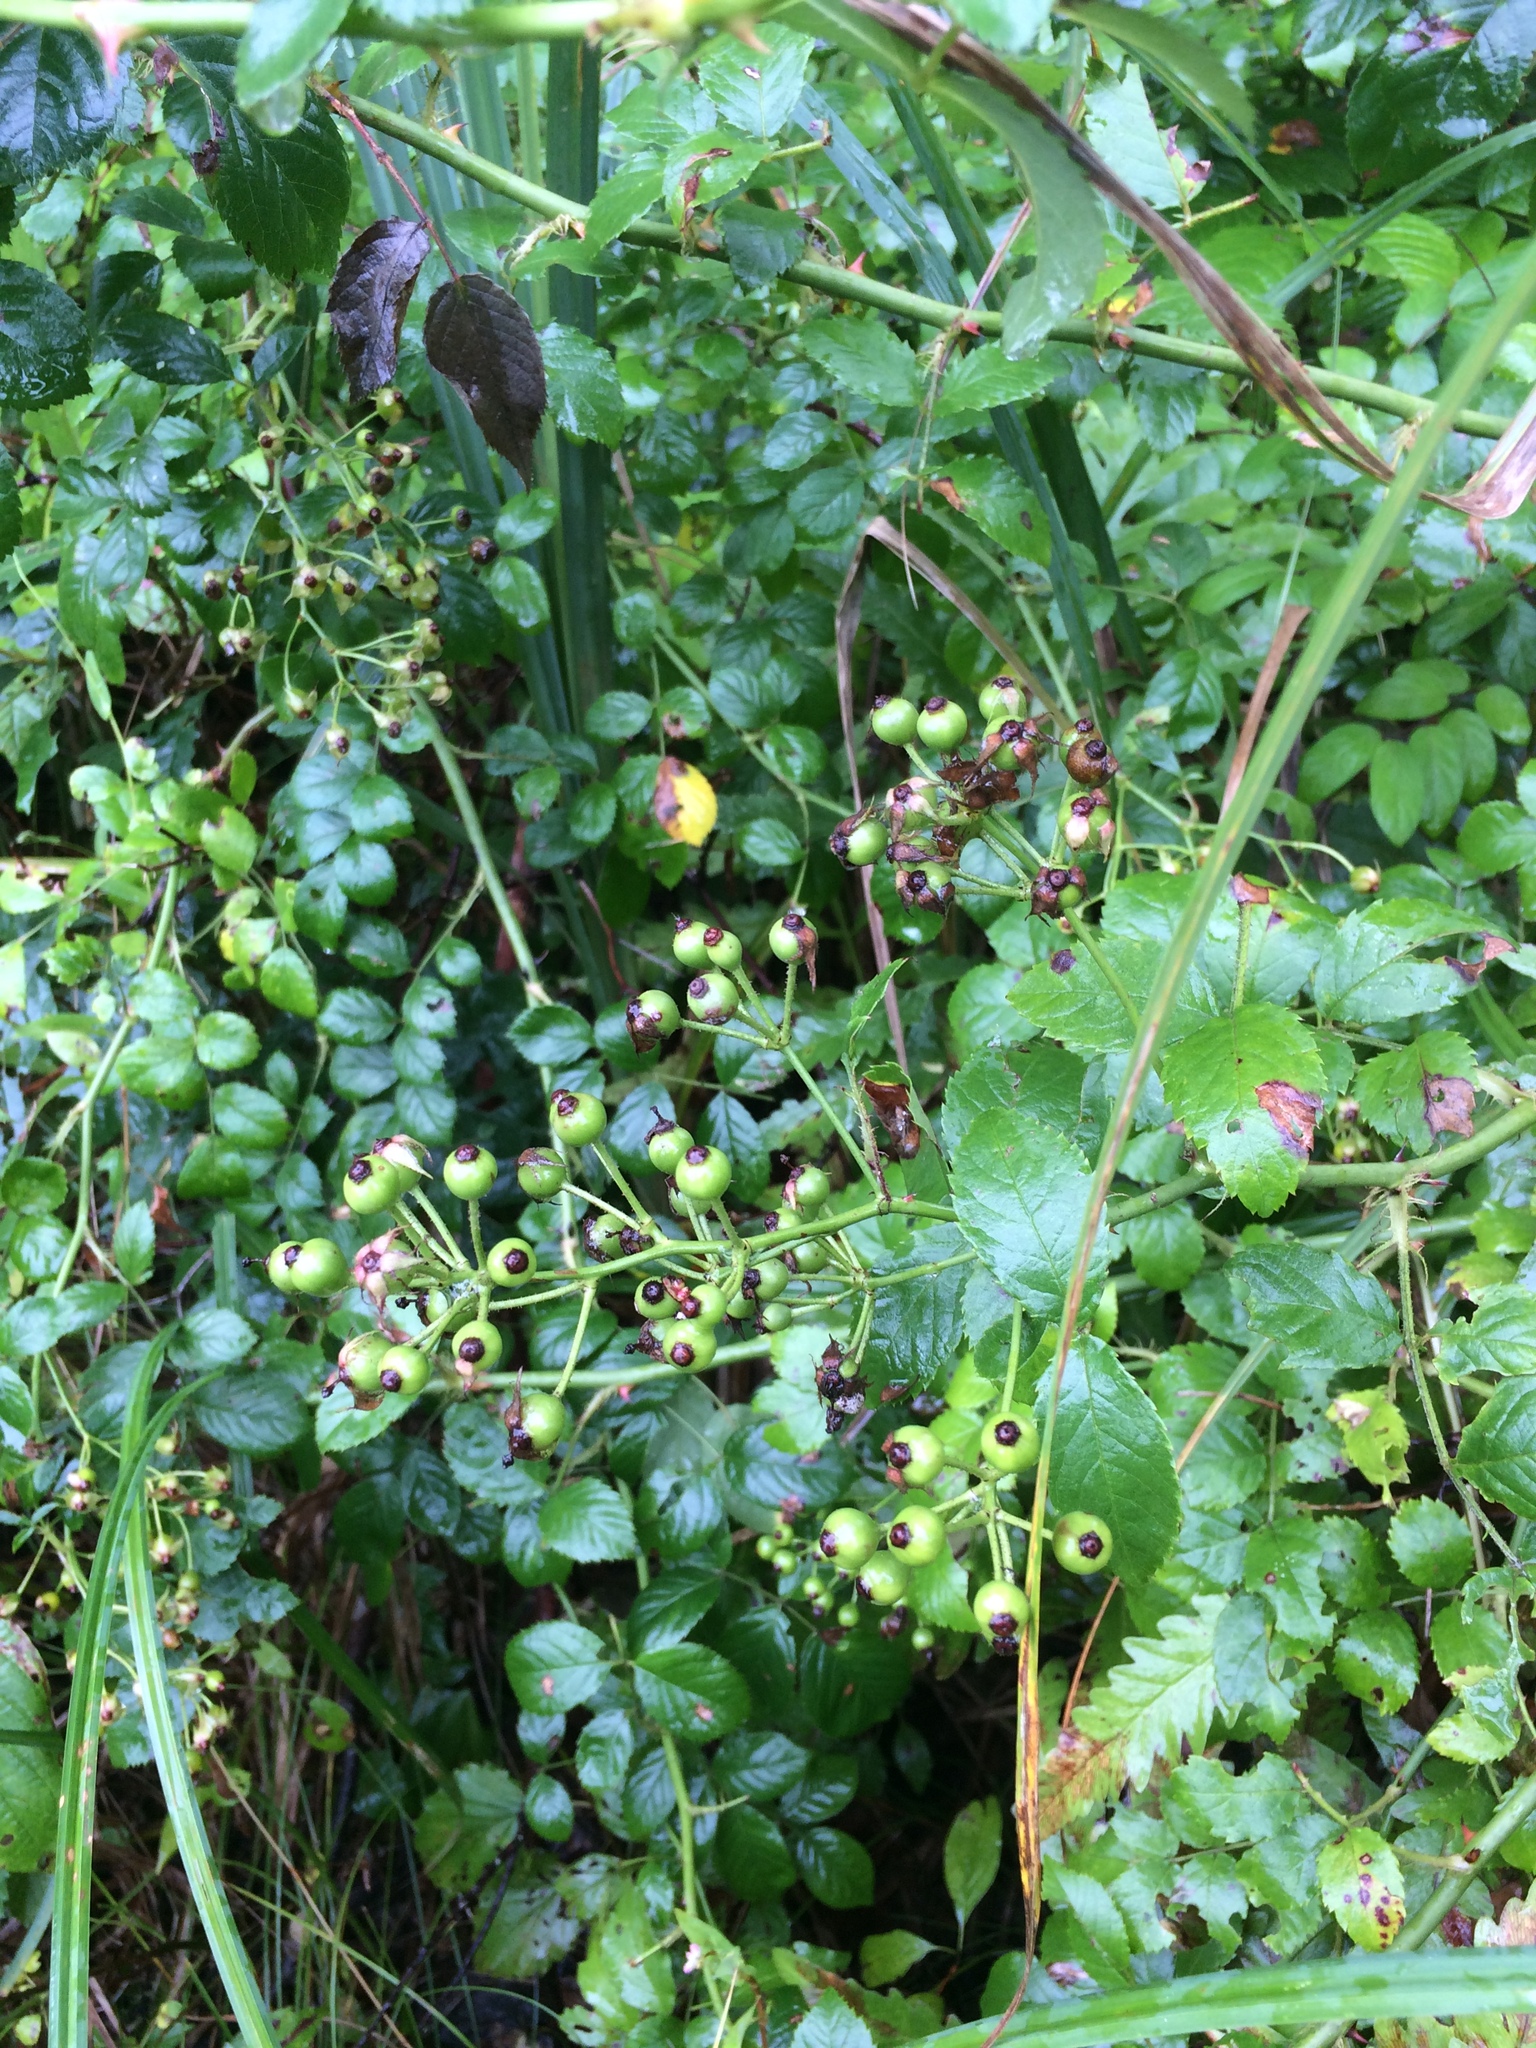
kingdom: Plantae
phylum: Tracheophyta
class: Magnoliopsida
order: Rosales
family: Rosaceae
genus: Rosa
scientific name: Rosa multiflora
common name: Multiflora rose
